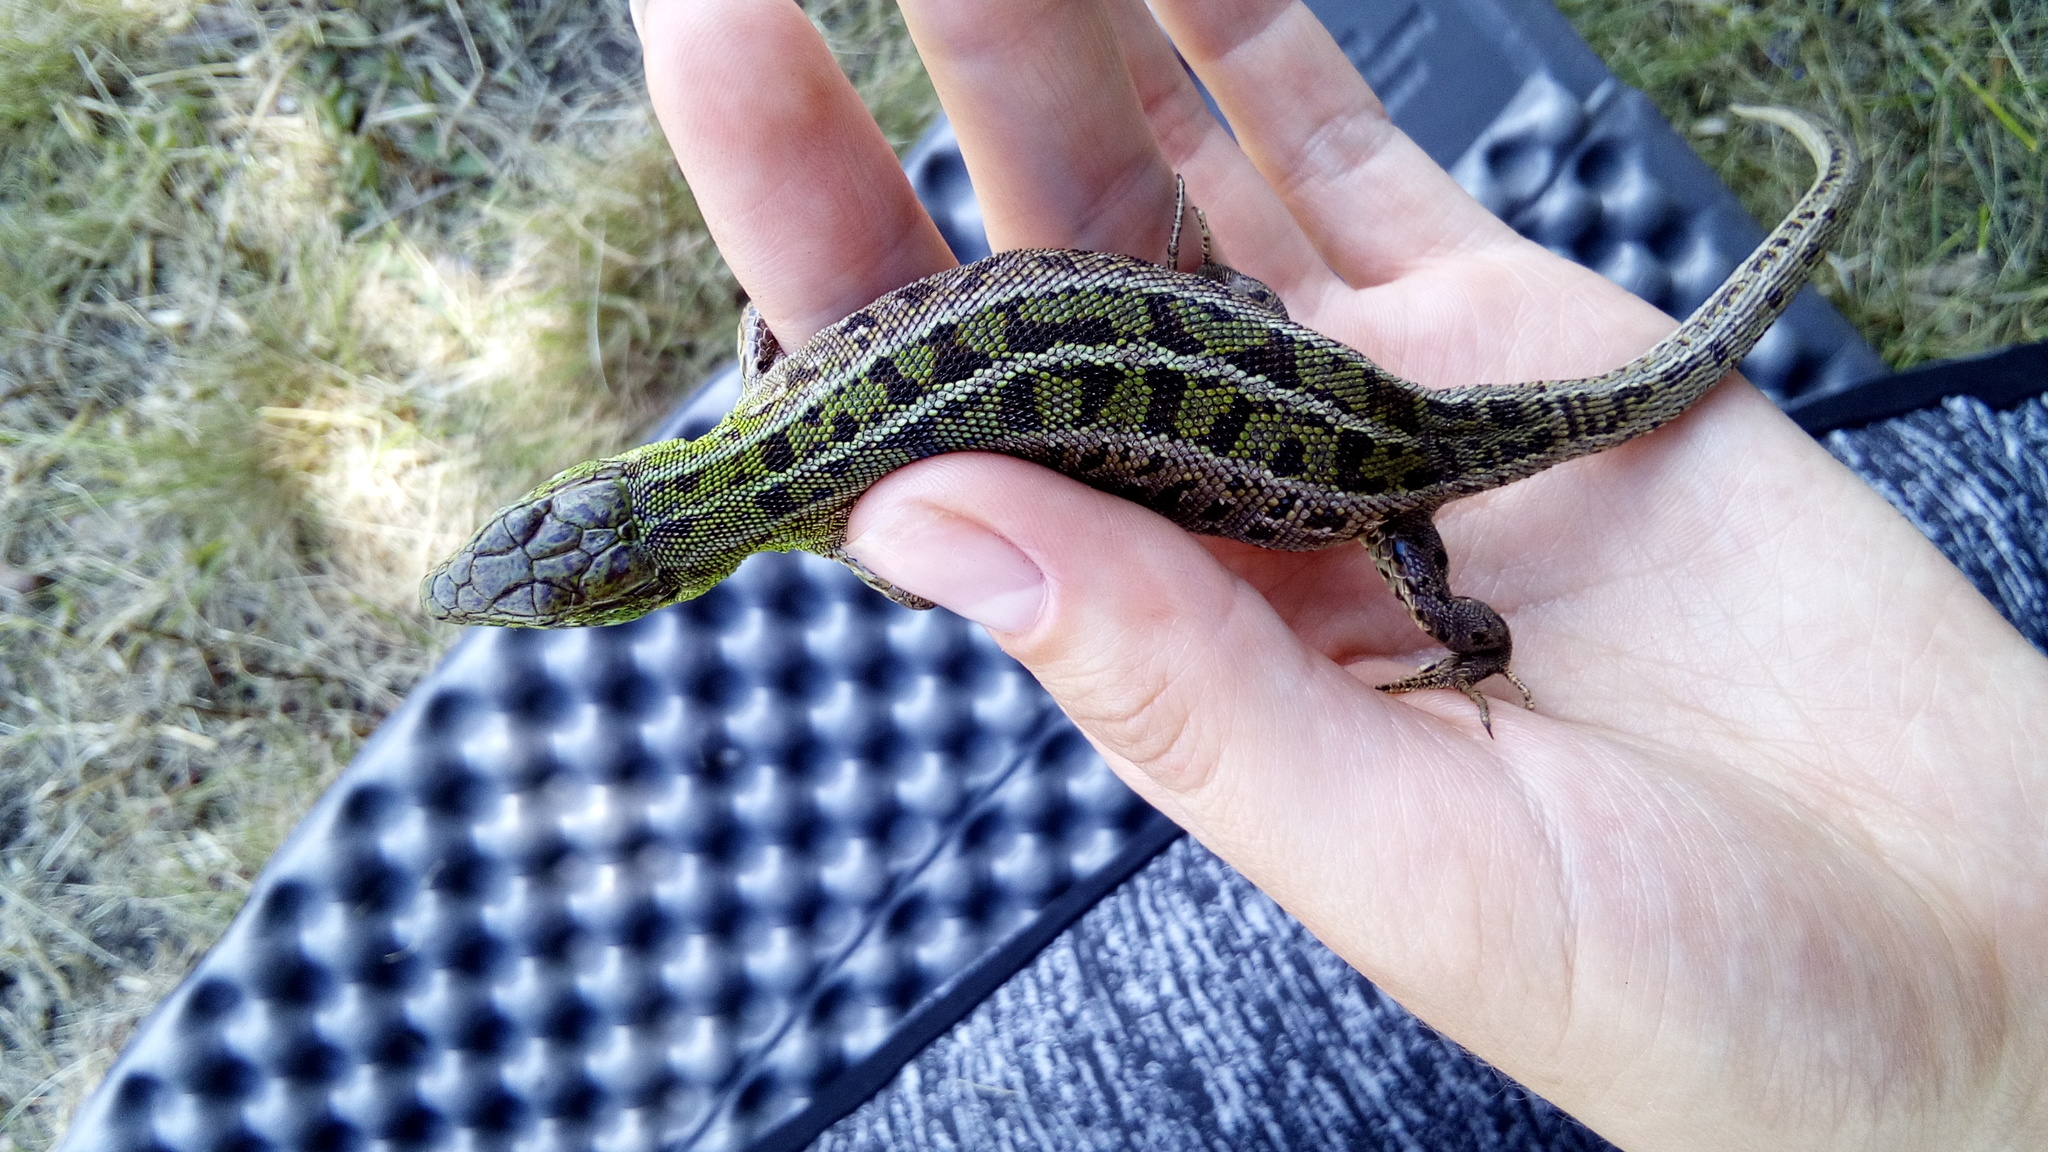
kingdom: Animalia
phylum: Chordata
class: Squamata
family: Lacertidae
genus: Lacerta
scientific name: Lacerta agilis
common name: Sand lizard
